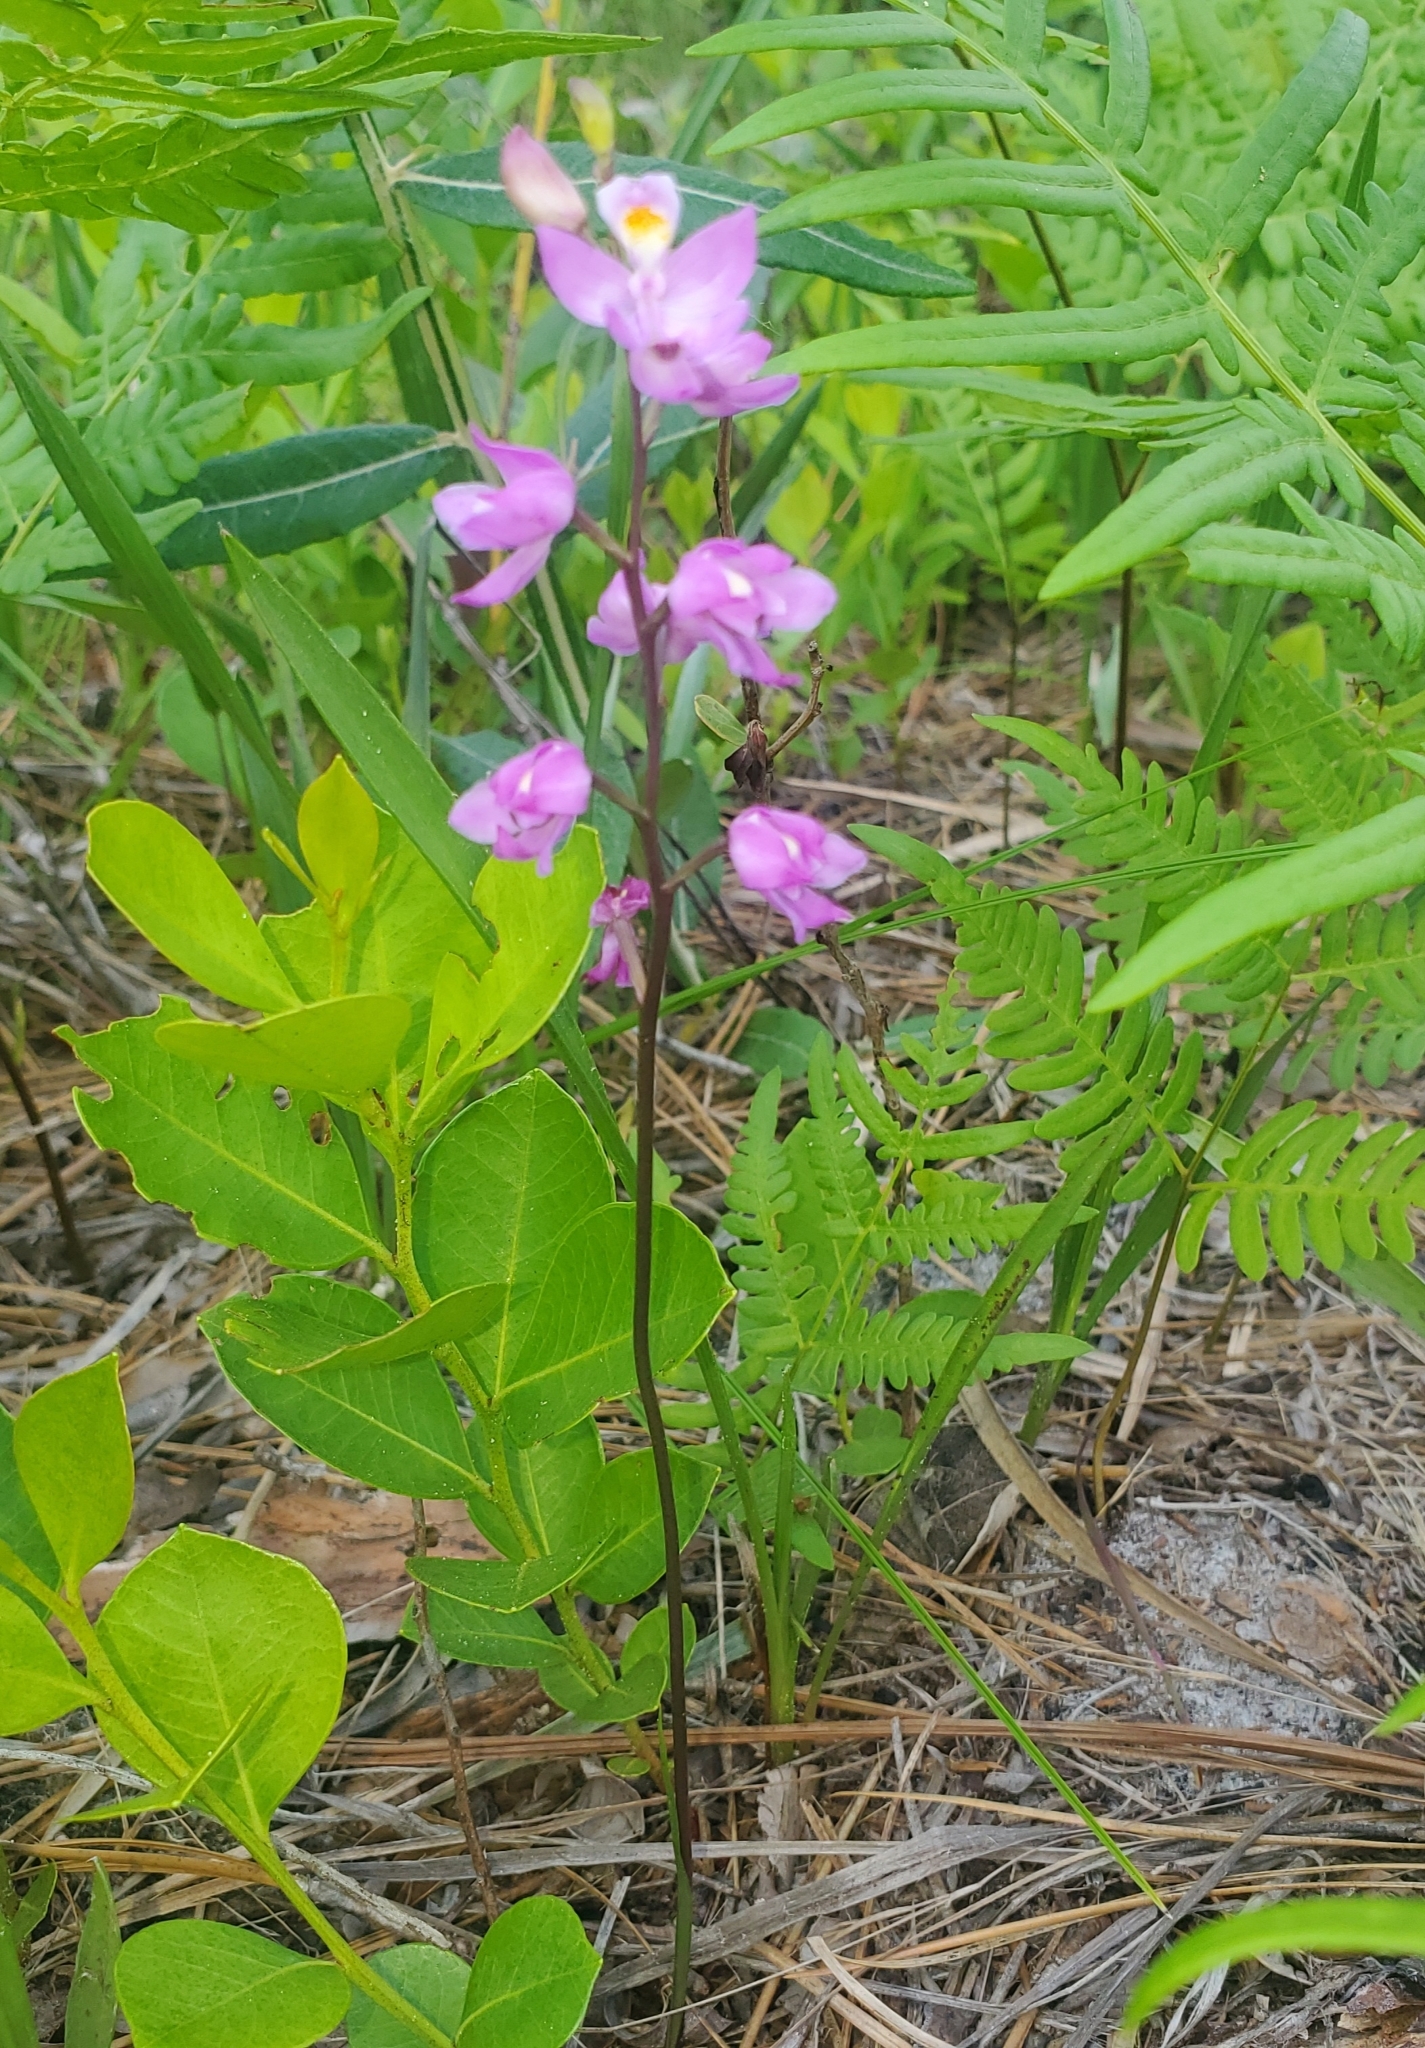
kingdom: Plantae
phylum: Tracheophyta
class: Liliopsida
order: Asparagales
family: Orchidaceae
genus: Calopogon
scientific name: Calopogon multiflorus
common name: Many-flowered grass-pink orchid
